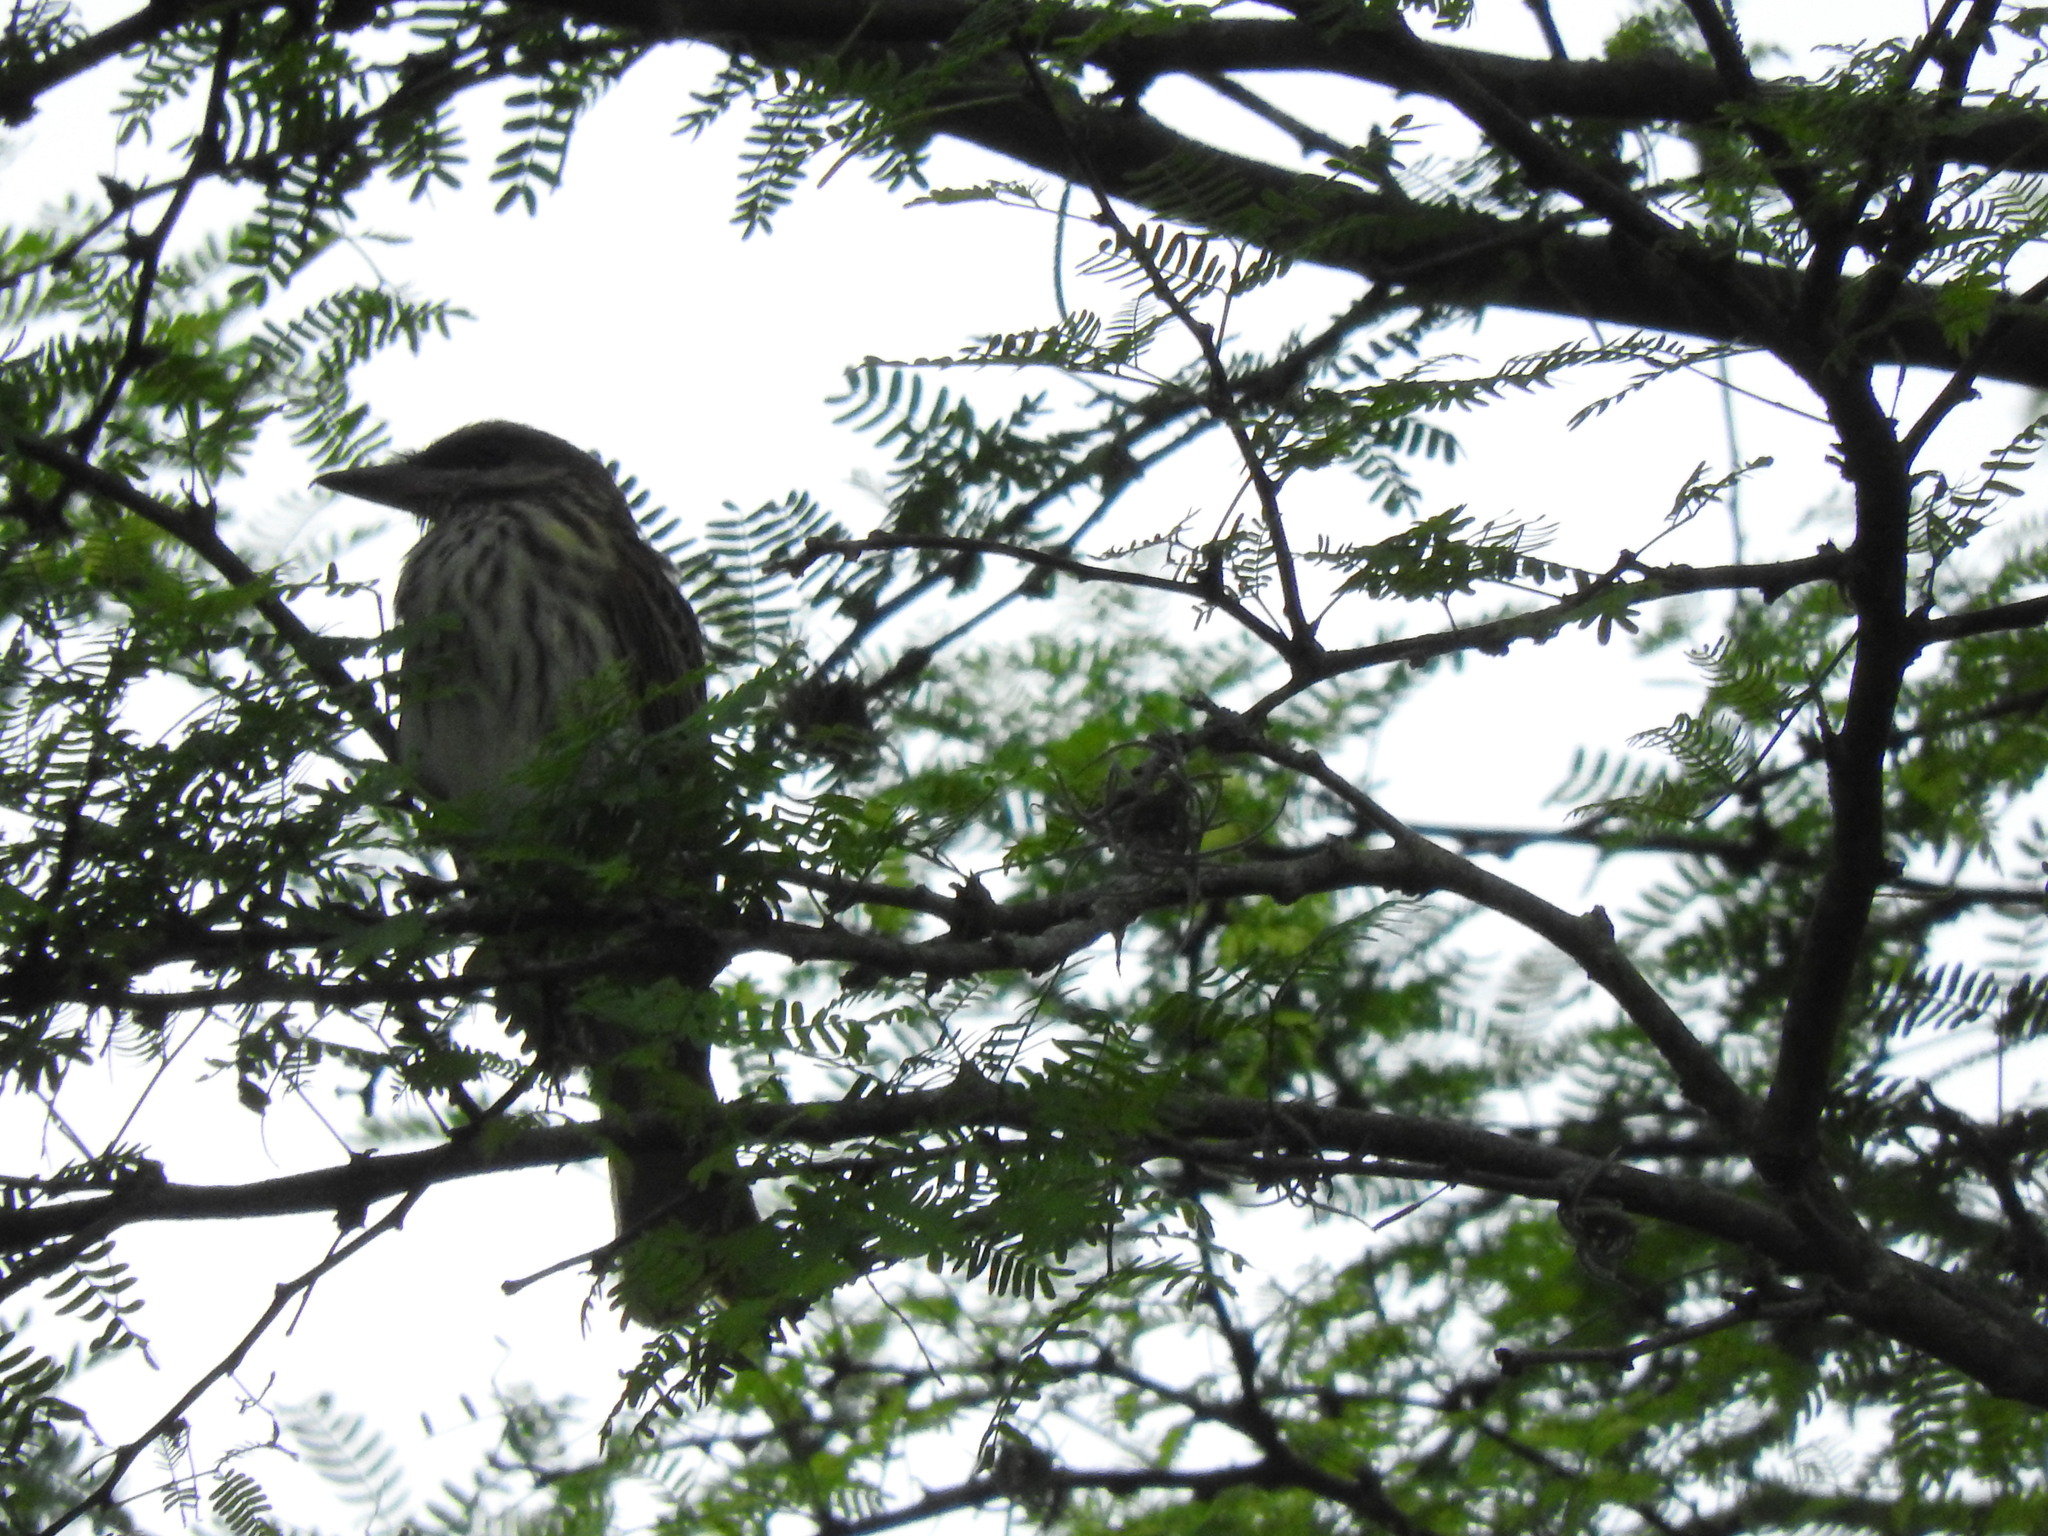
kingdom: Animalia
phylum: Chordata
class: Aves
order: Passeriformes
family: Tyrannidae
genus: Myiodynastes
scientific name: Myiodynastes maculatus
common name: Streaked flycatcher
